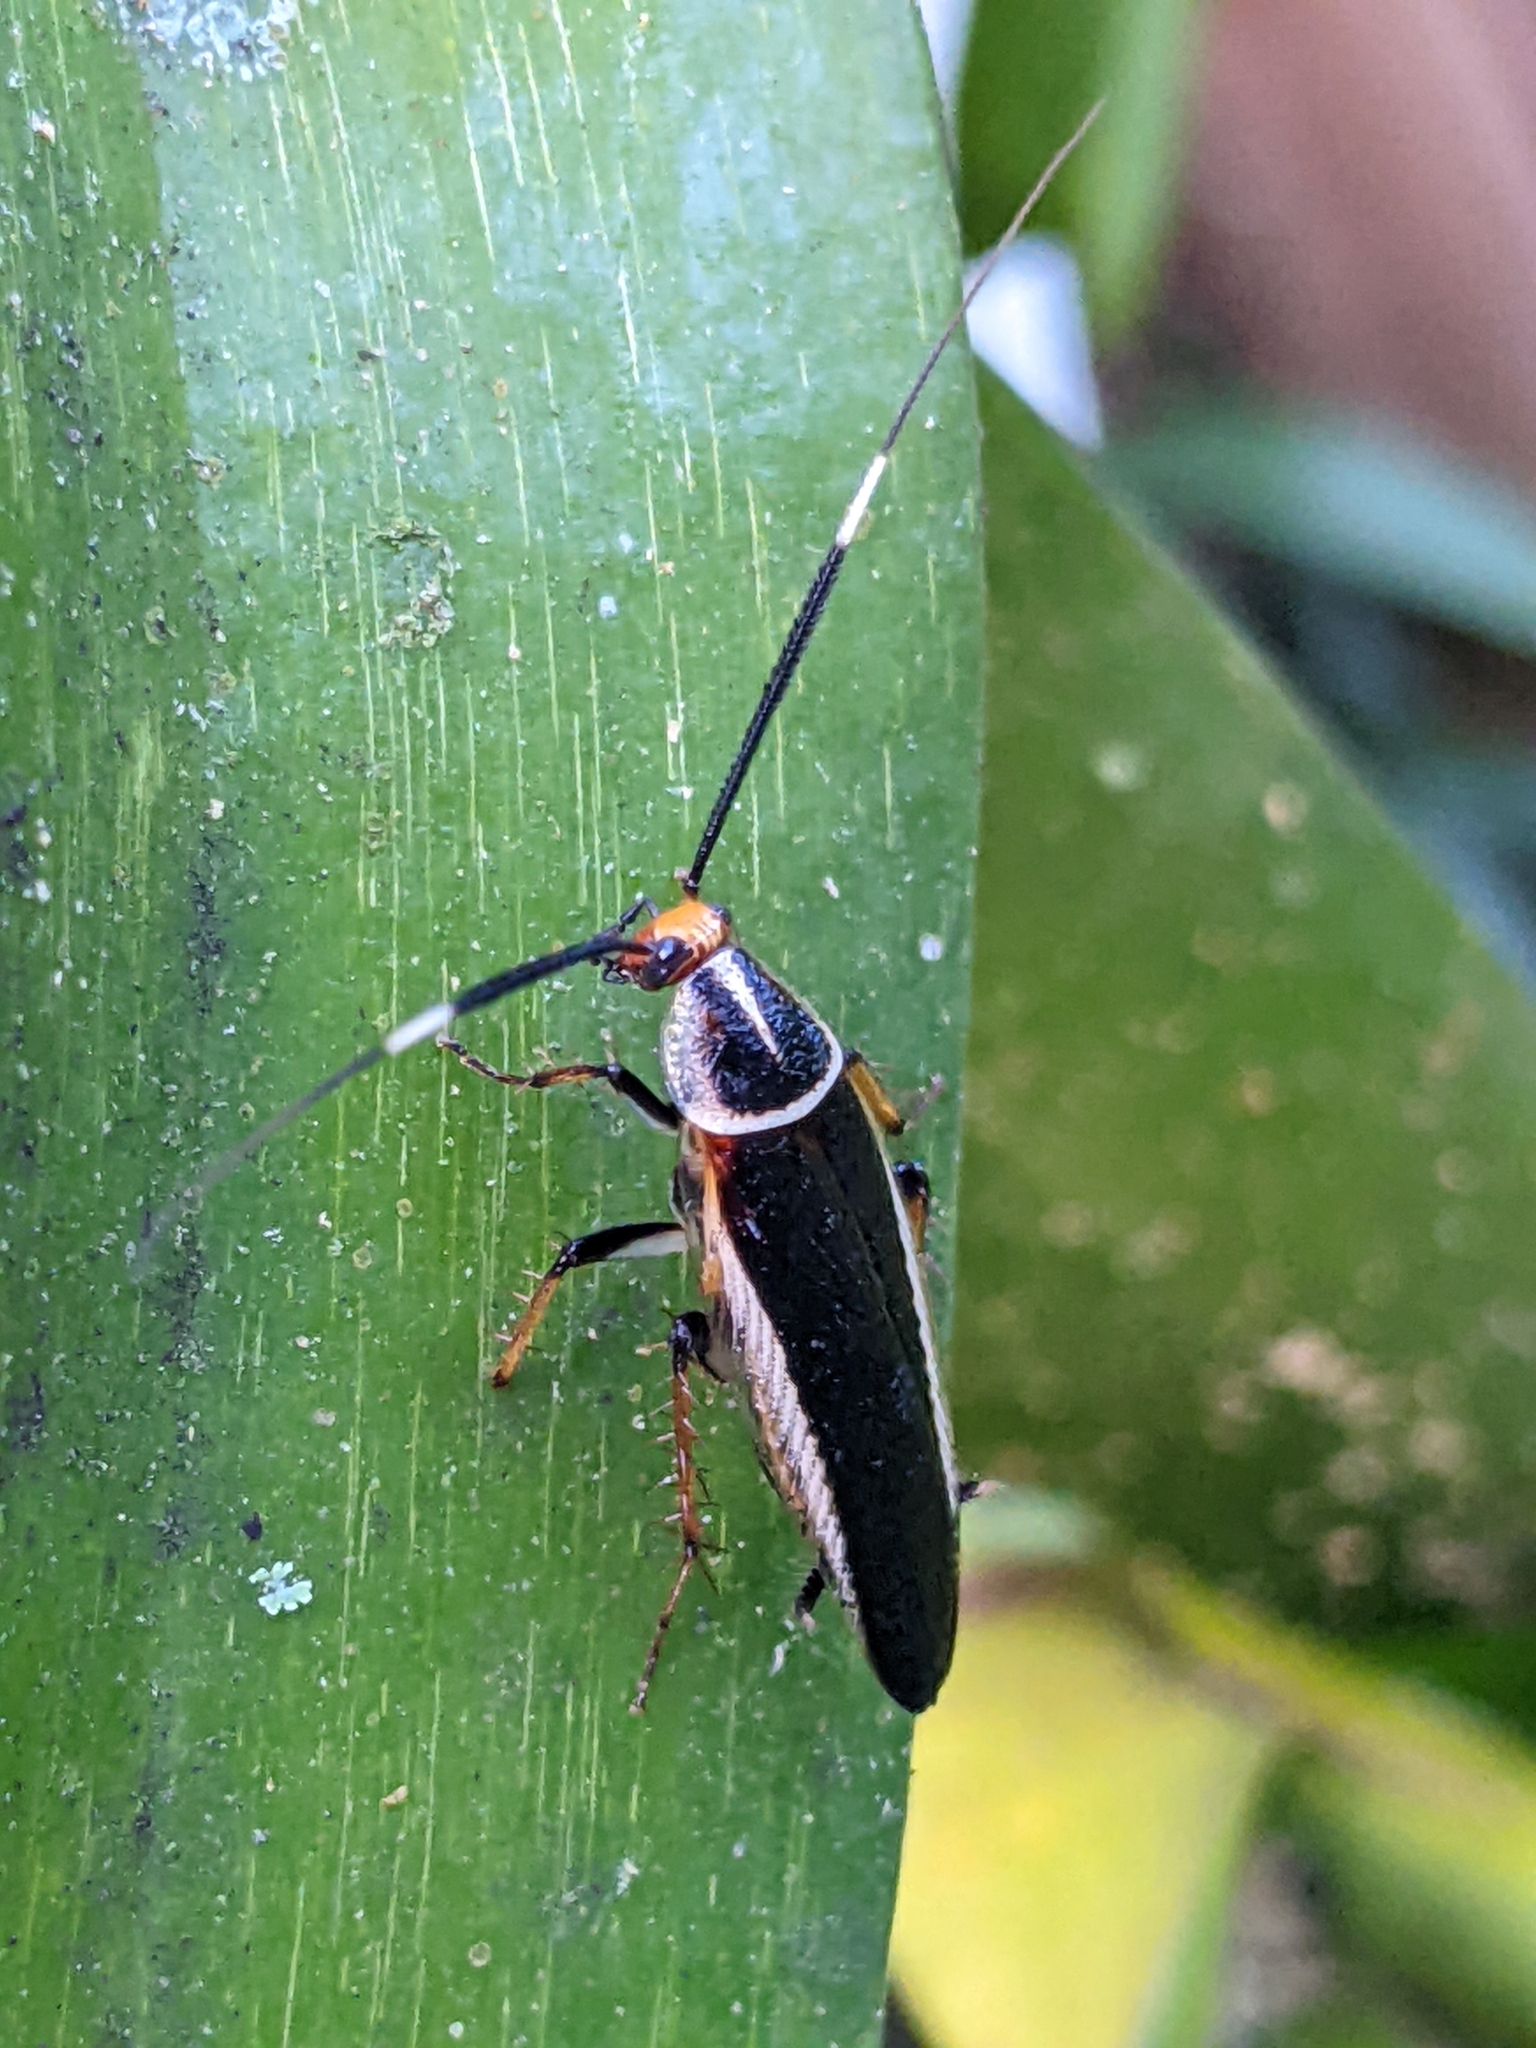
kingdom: Animalia
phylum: Arthropoda
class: Insecta
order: Blattodea
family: Ectobiidae
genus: Hemithyrsocera
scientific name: Hemithyrsocera histrio
